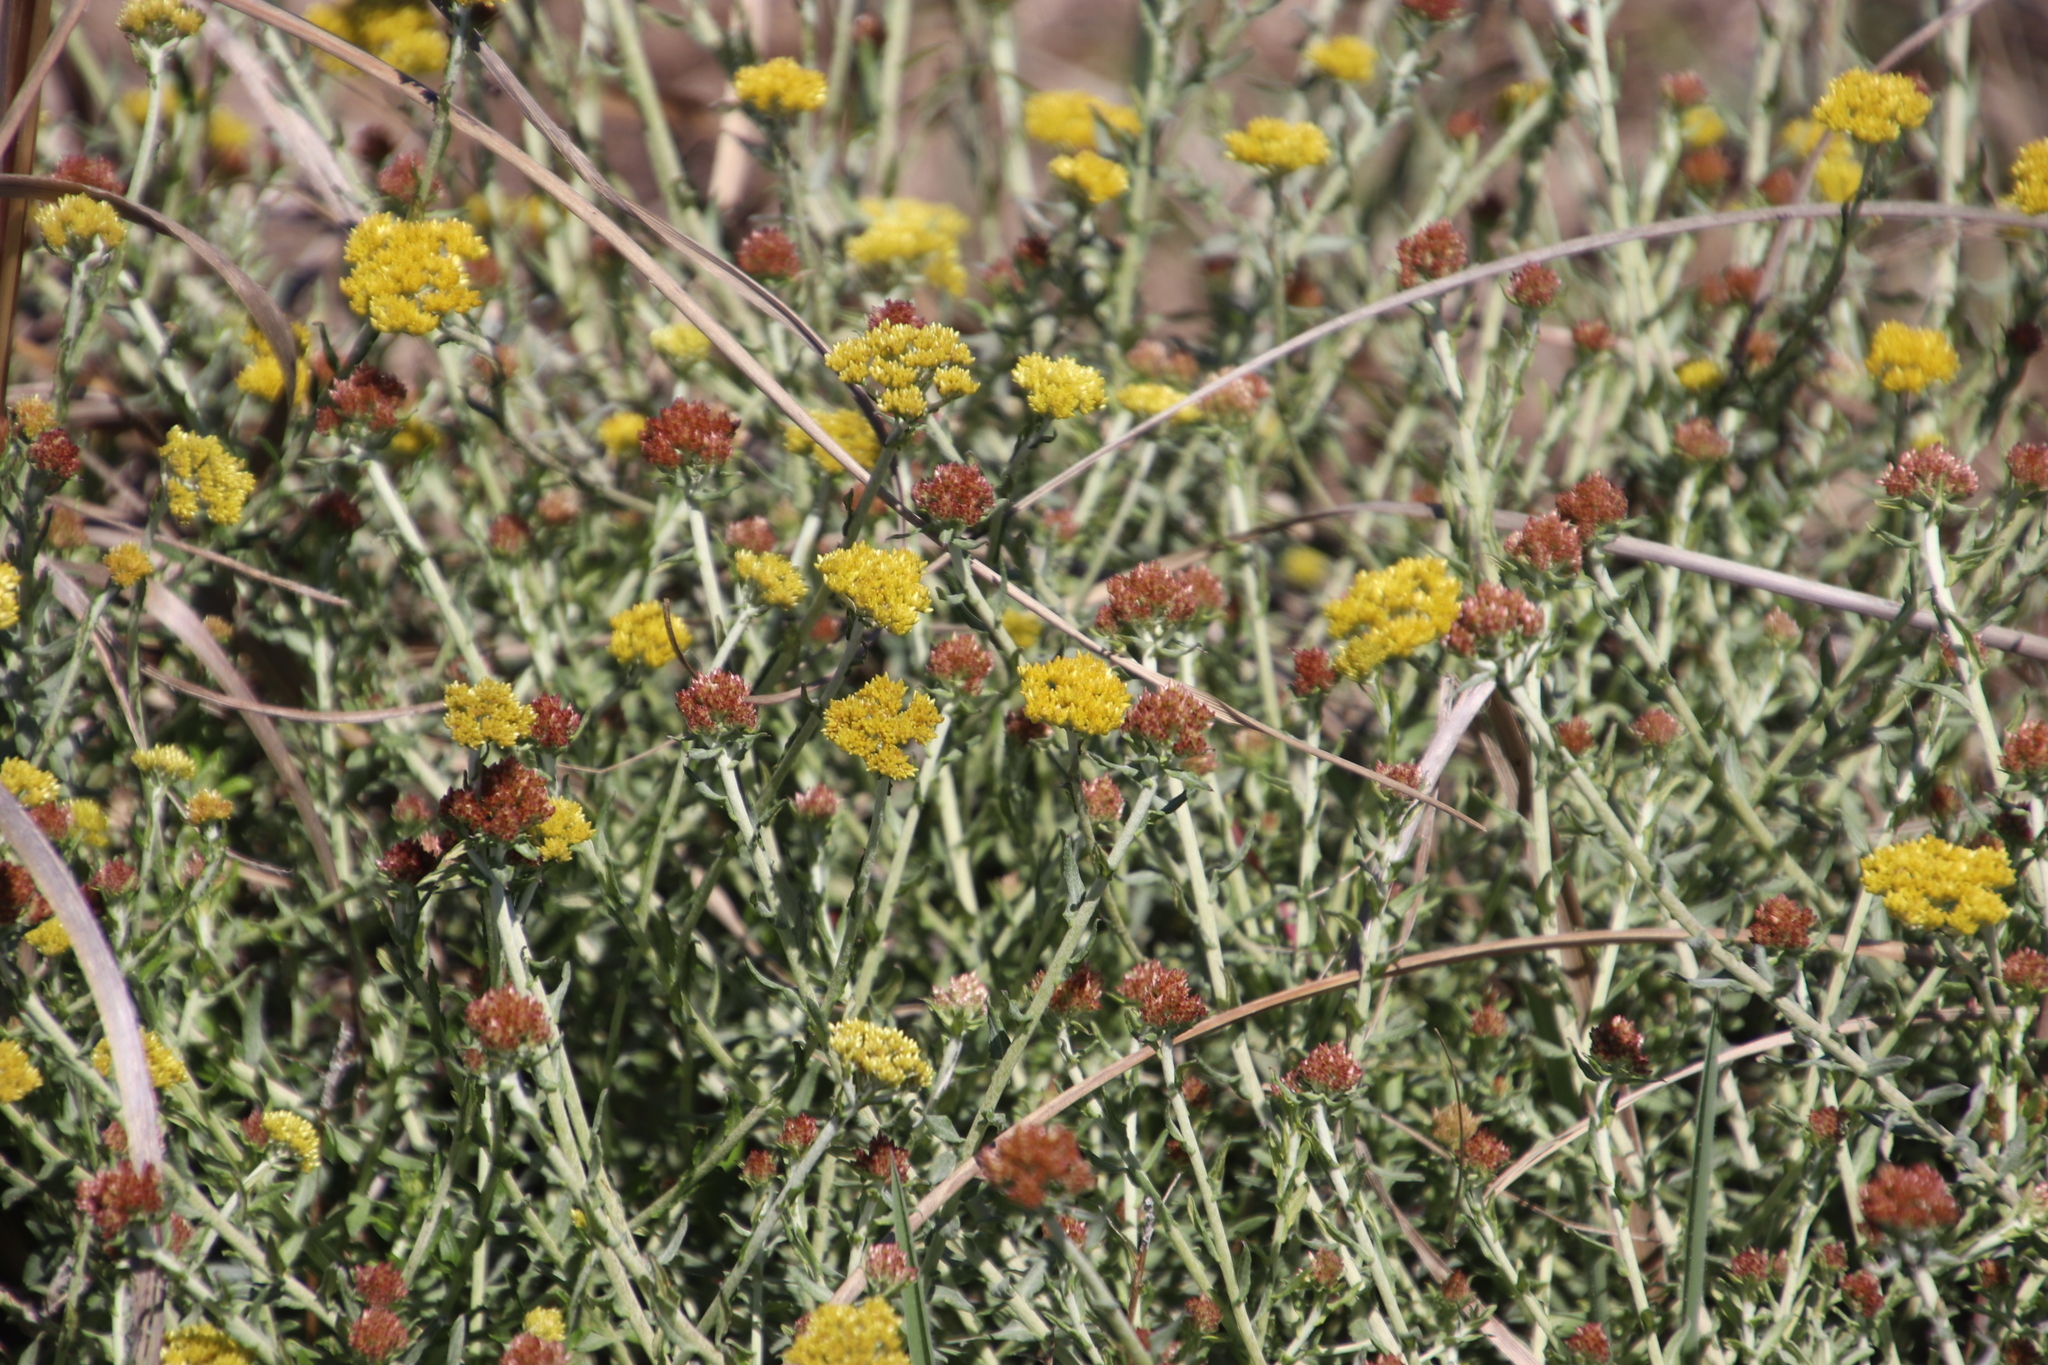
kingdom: Plantae
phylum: Tracheophyta
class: Magnoliopsida
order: Asterales
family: Asteraceae
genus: Helichrysum
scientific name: Helichrysum cymosum
